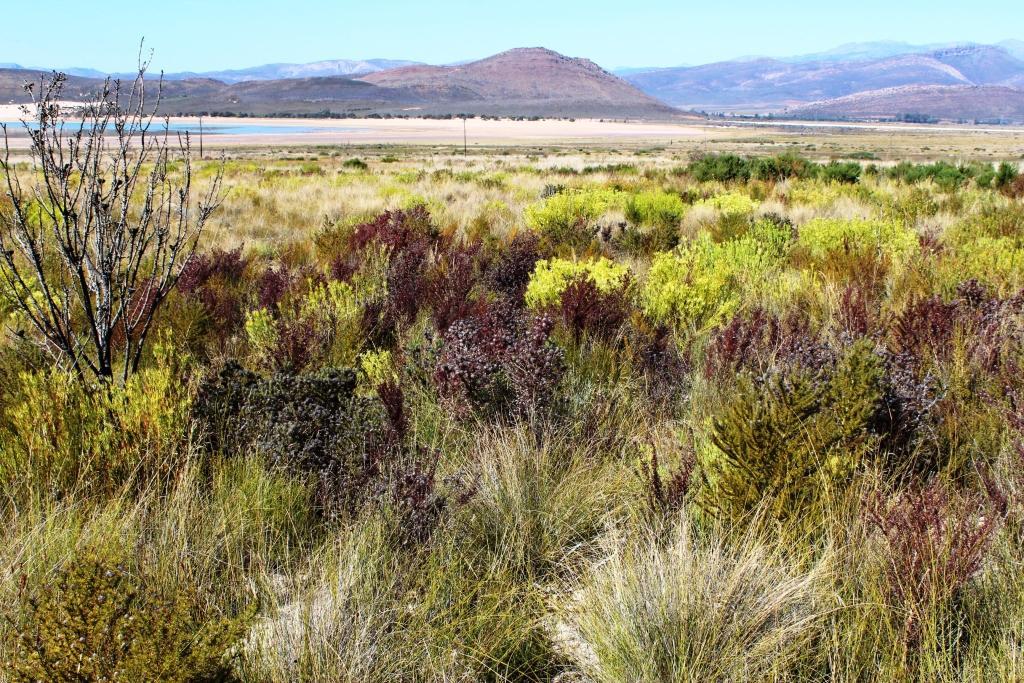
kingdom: Plantae
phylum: Tracheophyta
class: Magnoliopsida
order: Fabales
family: Fabaceae
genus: Aspalathus
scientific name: Aspalathus rubiginosa
